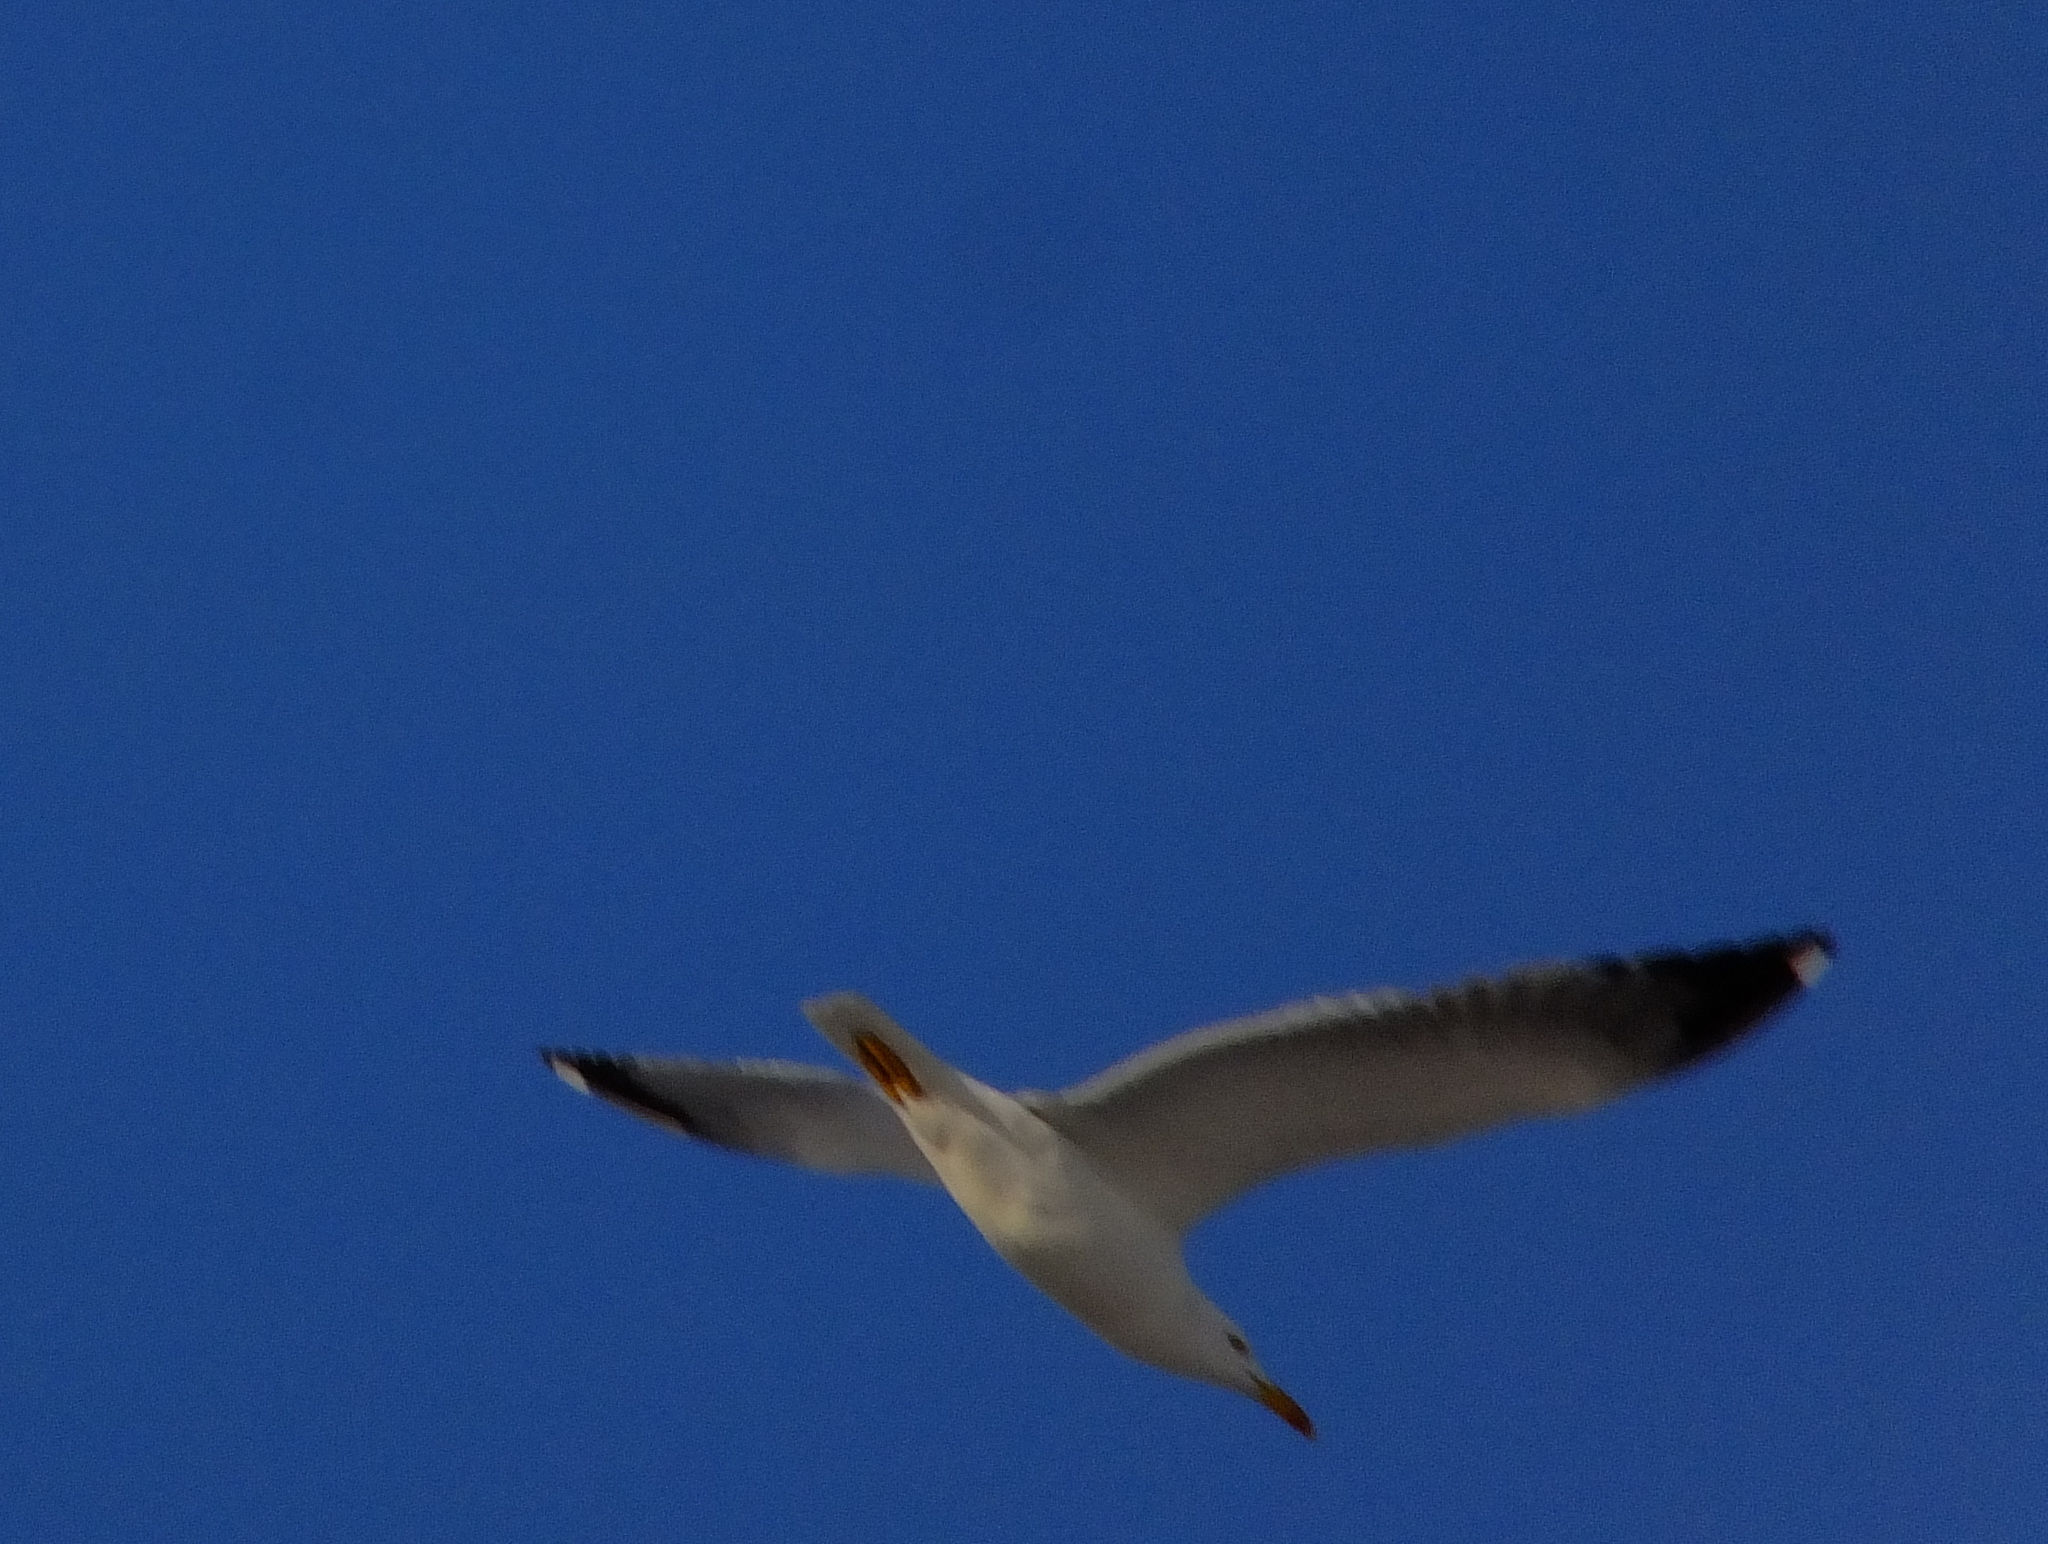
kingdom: Animalia
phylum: Chordata
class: Aves
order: Charadriiformes
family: Laridae
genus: Larus
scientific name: Larus fuscus
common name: Lesser black-backed gull
